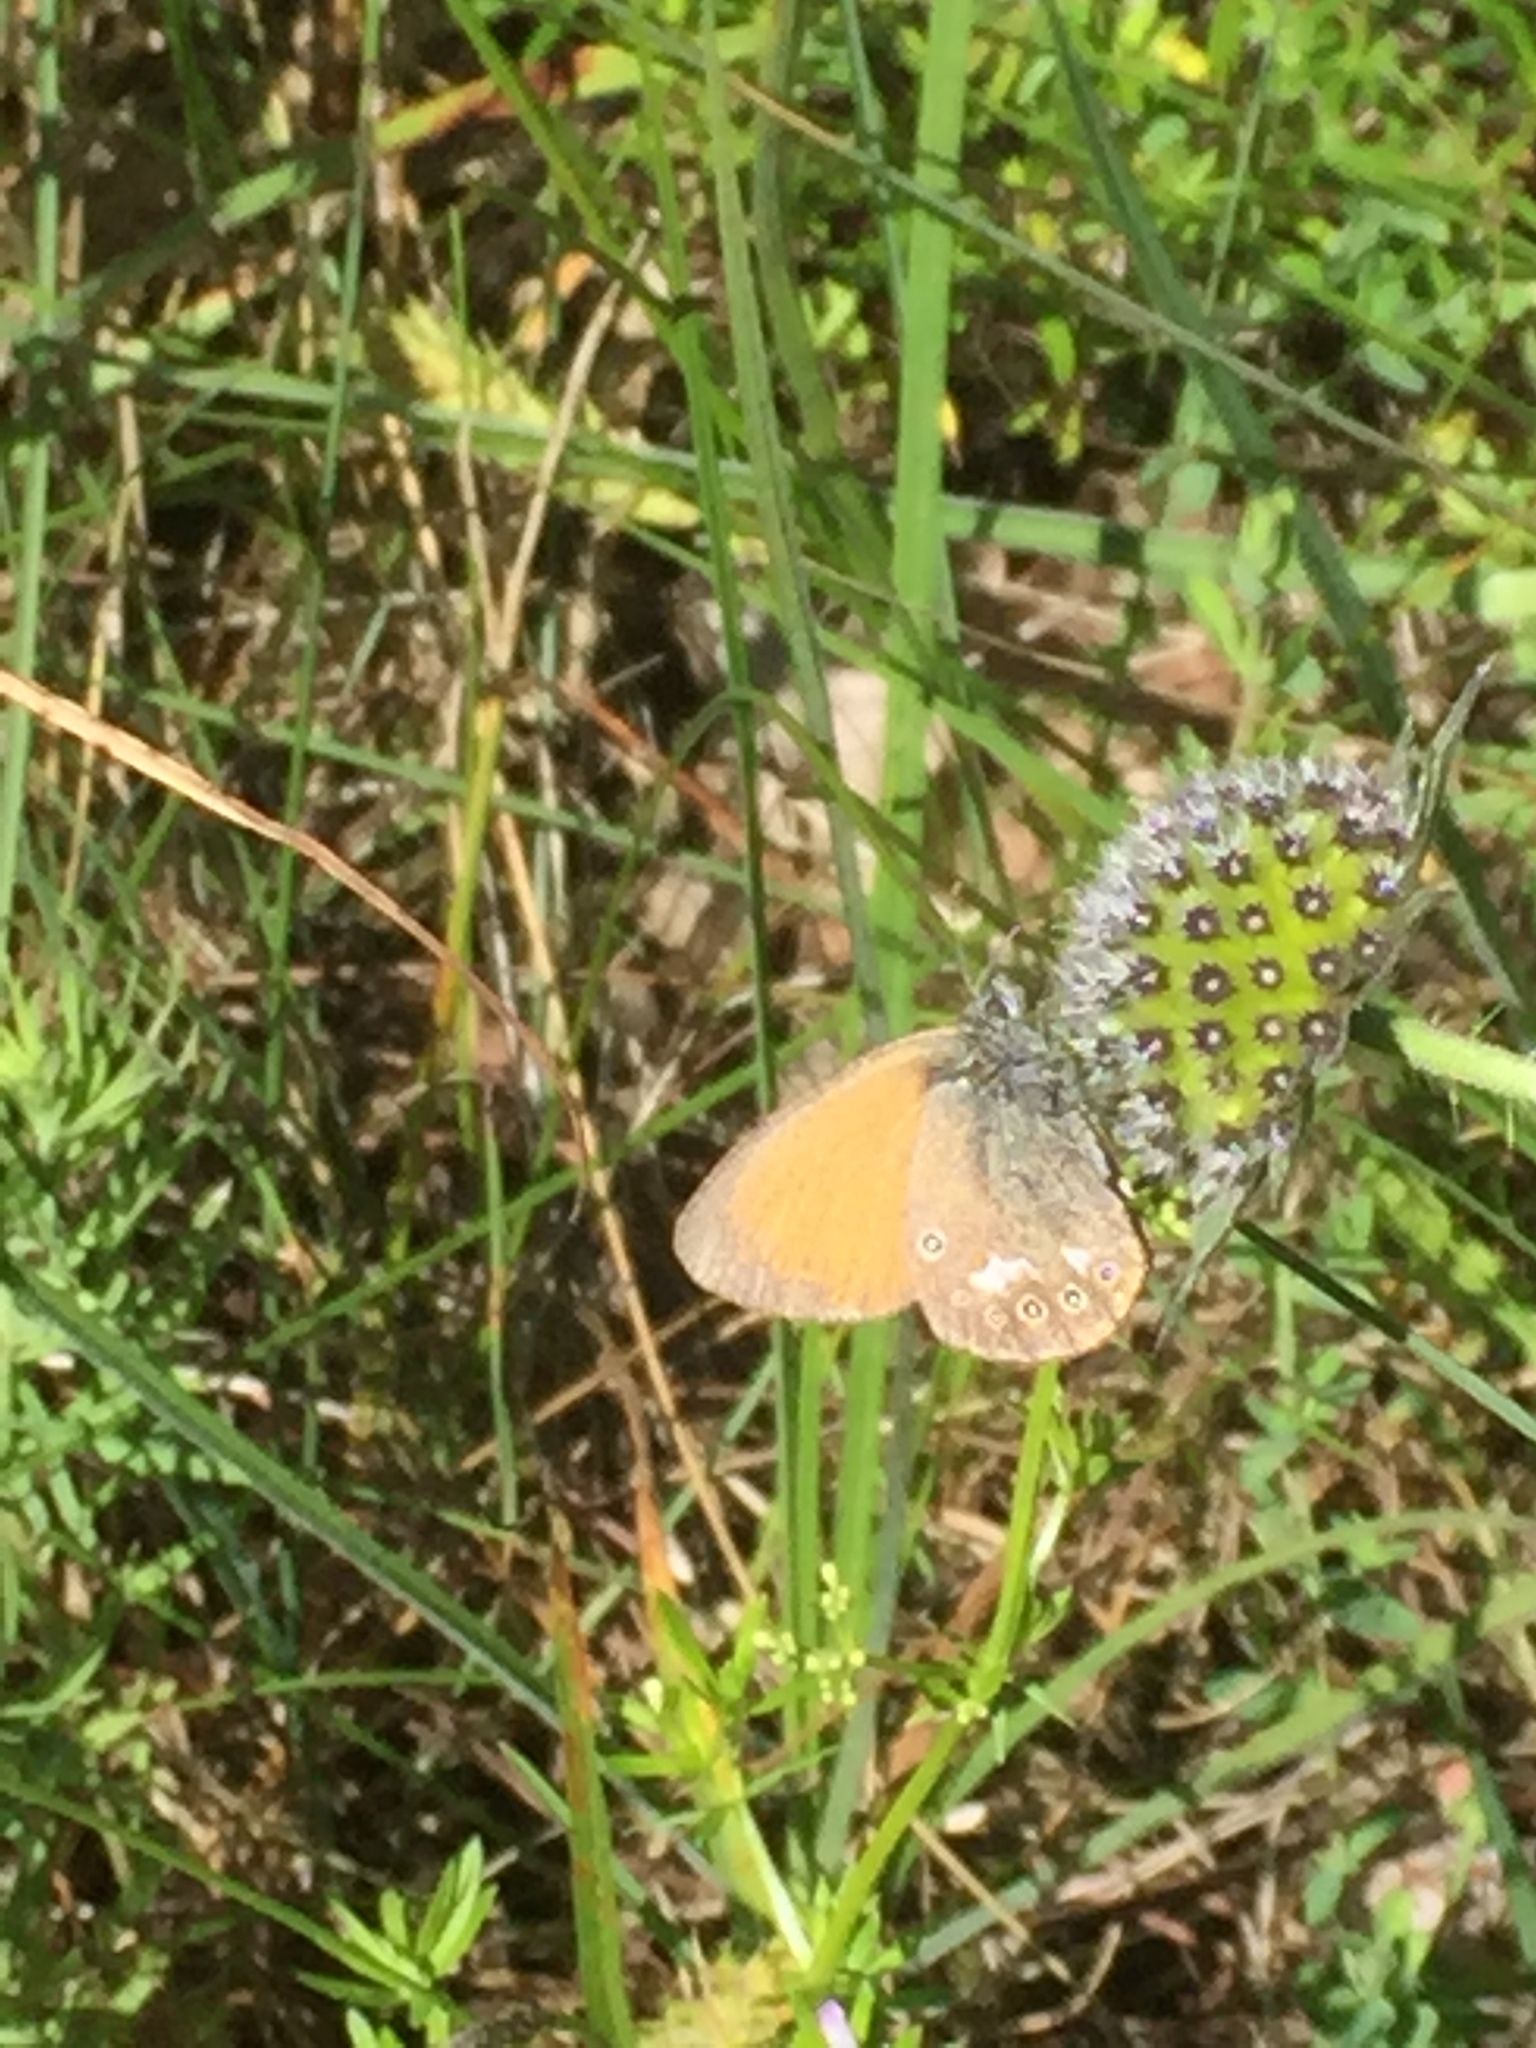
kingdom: Animalia
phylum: Arthropoda
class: Insecta
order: Lepidoptera
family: Nymphalidae
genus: Coenonympha
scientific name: Coenonympha iphis
